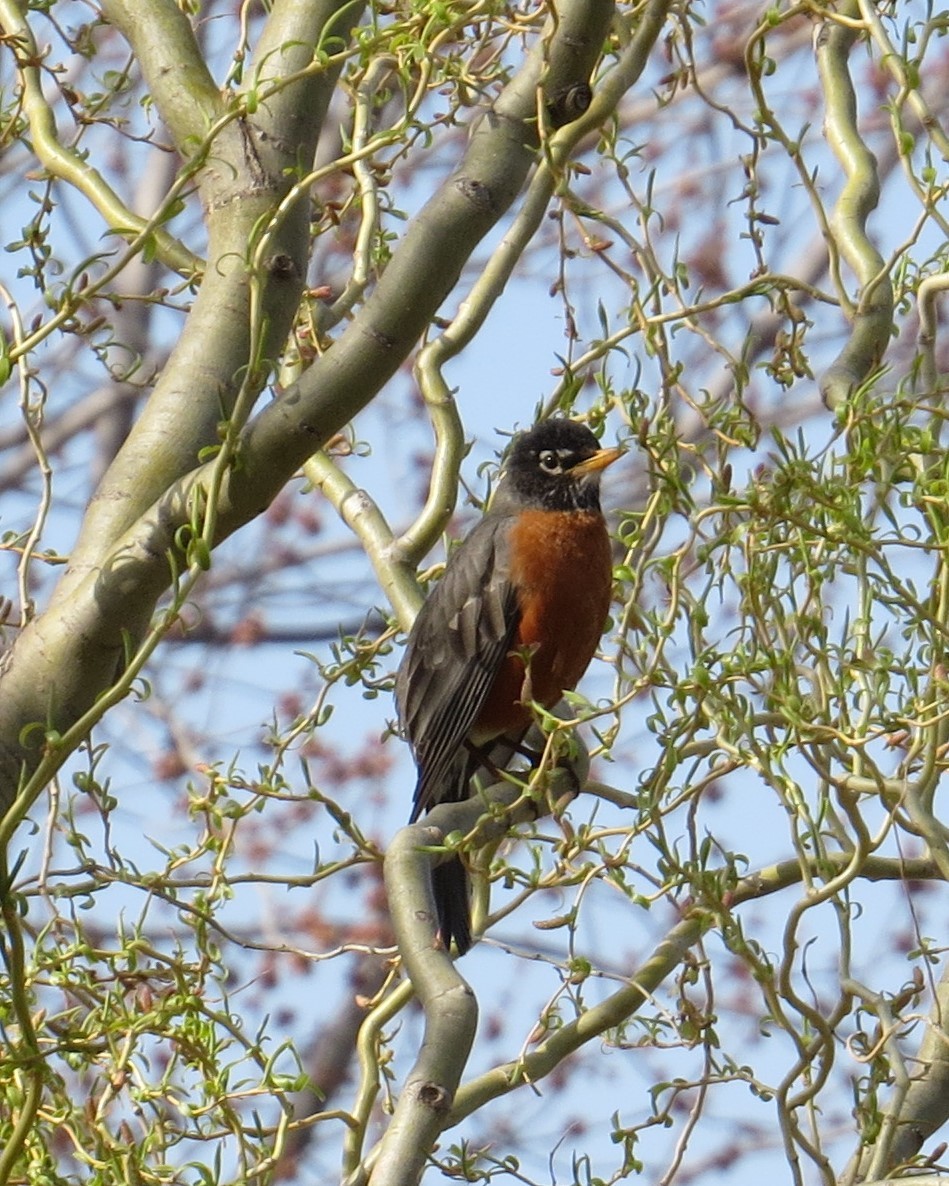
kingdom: Animalia
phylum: Chordata
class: Aves
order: Passeriformes
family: Turdidae
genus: Turdus
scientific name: Turdus migratorius
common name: American robin
